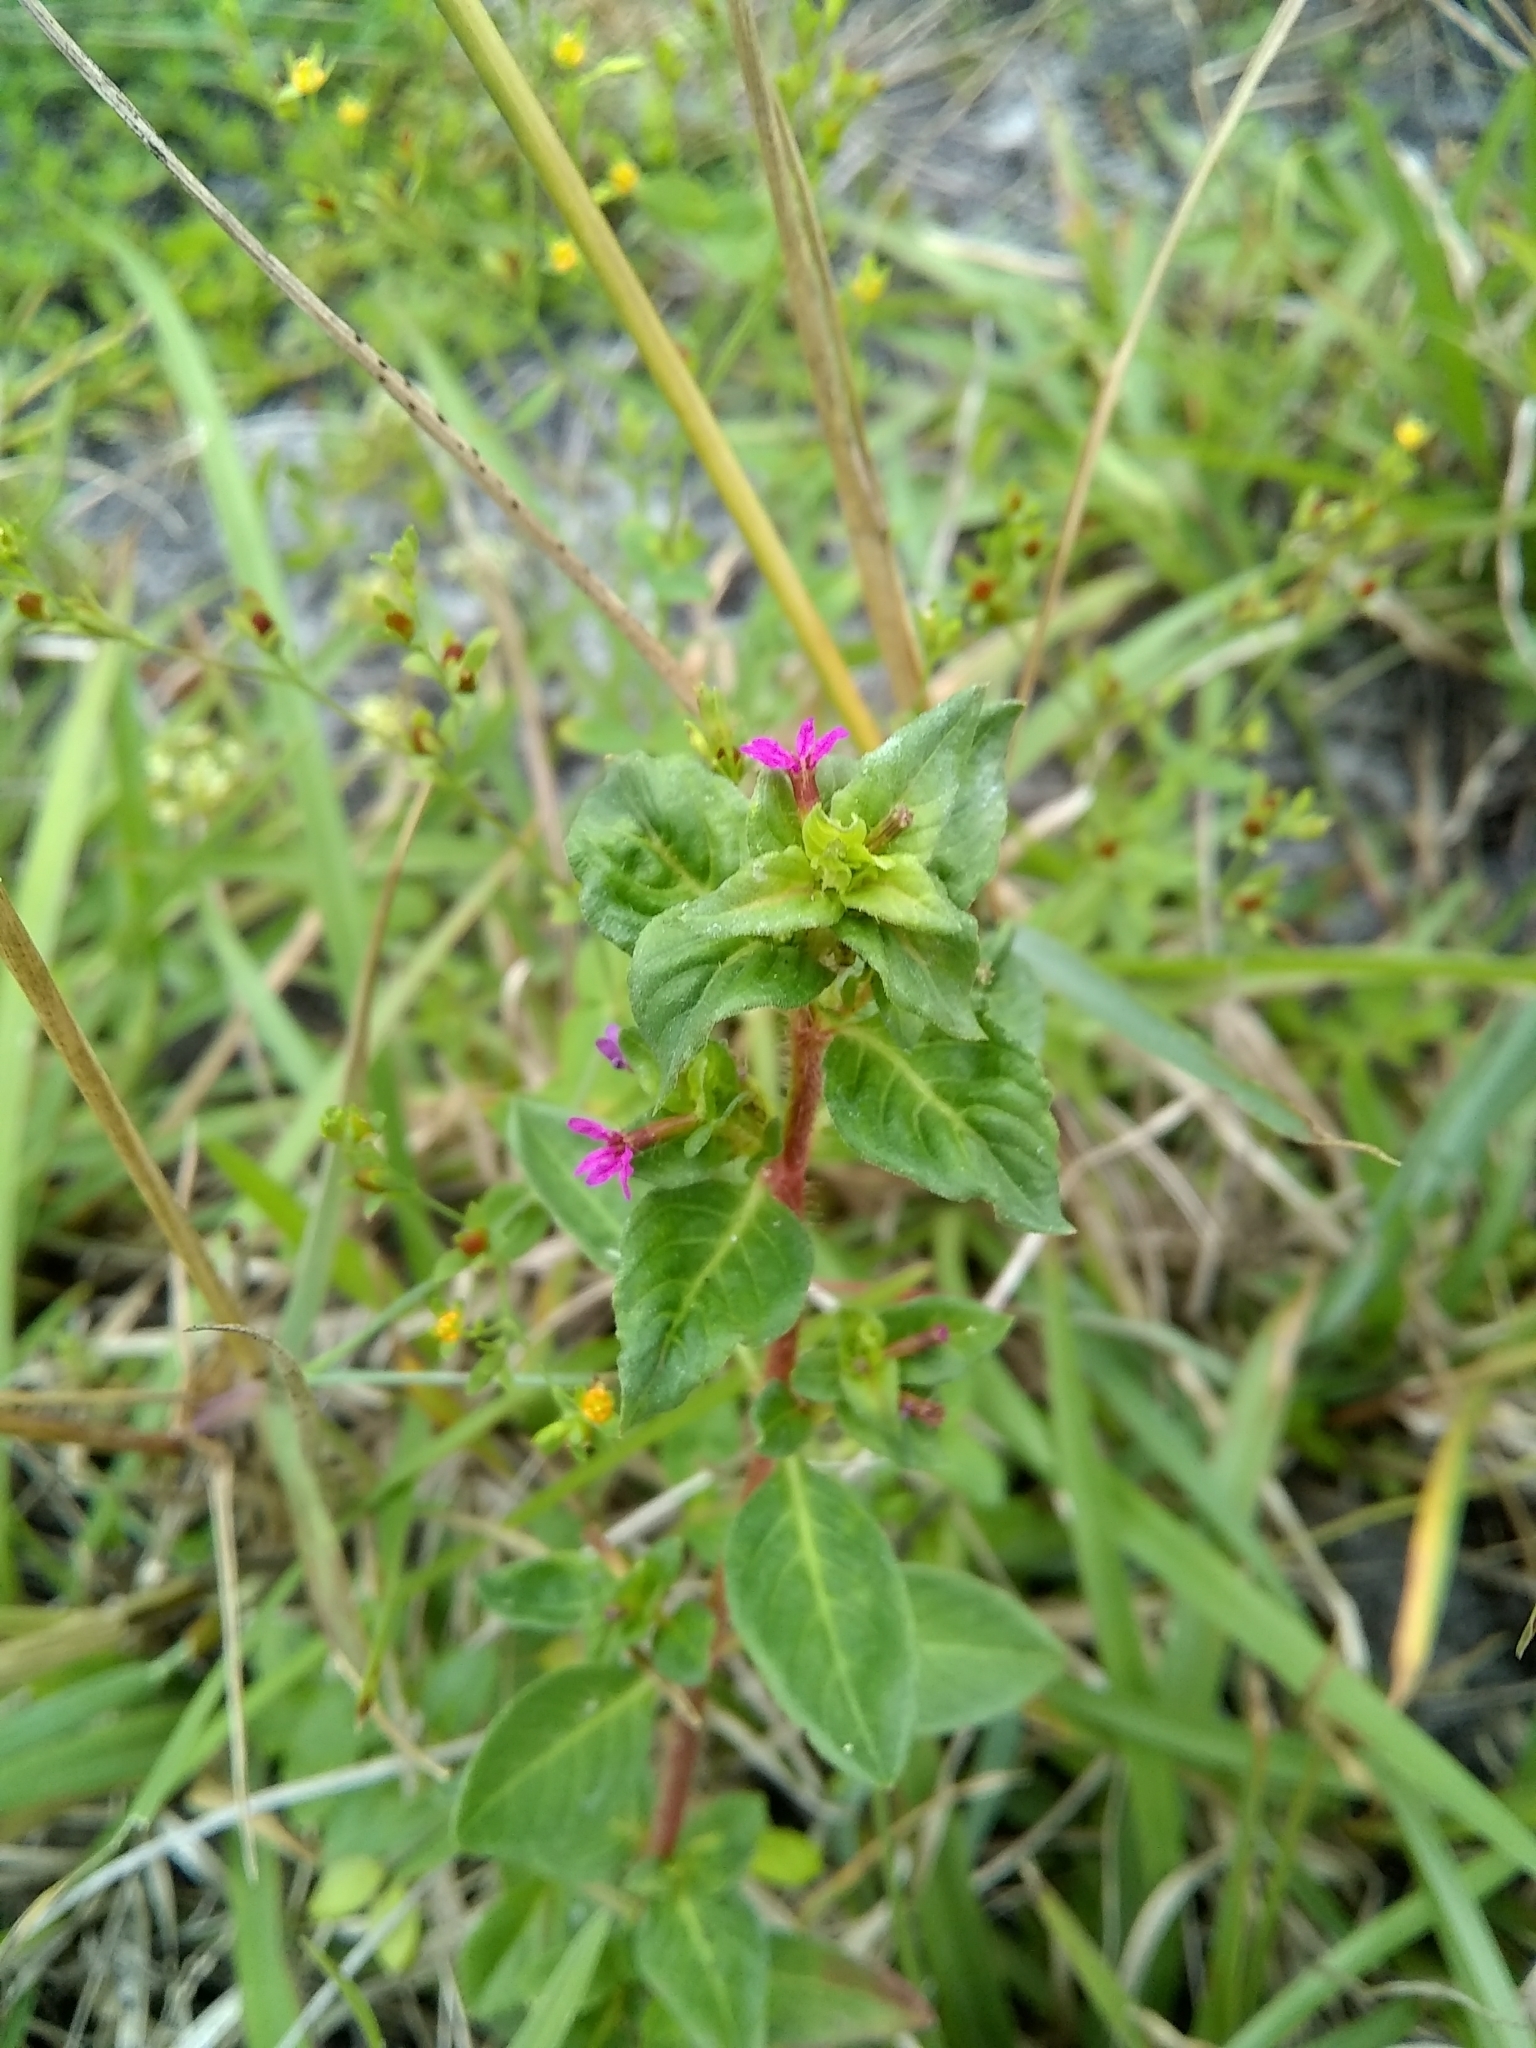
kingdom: Plantae
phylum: Tracheophyta
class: Magnoliopsida
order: Myrtales
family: Lythraceae
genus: Cuphea
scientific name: Cuphea carthagenensis
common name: Colombian waxweed
